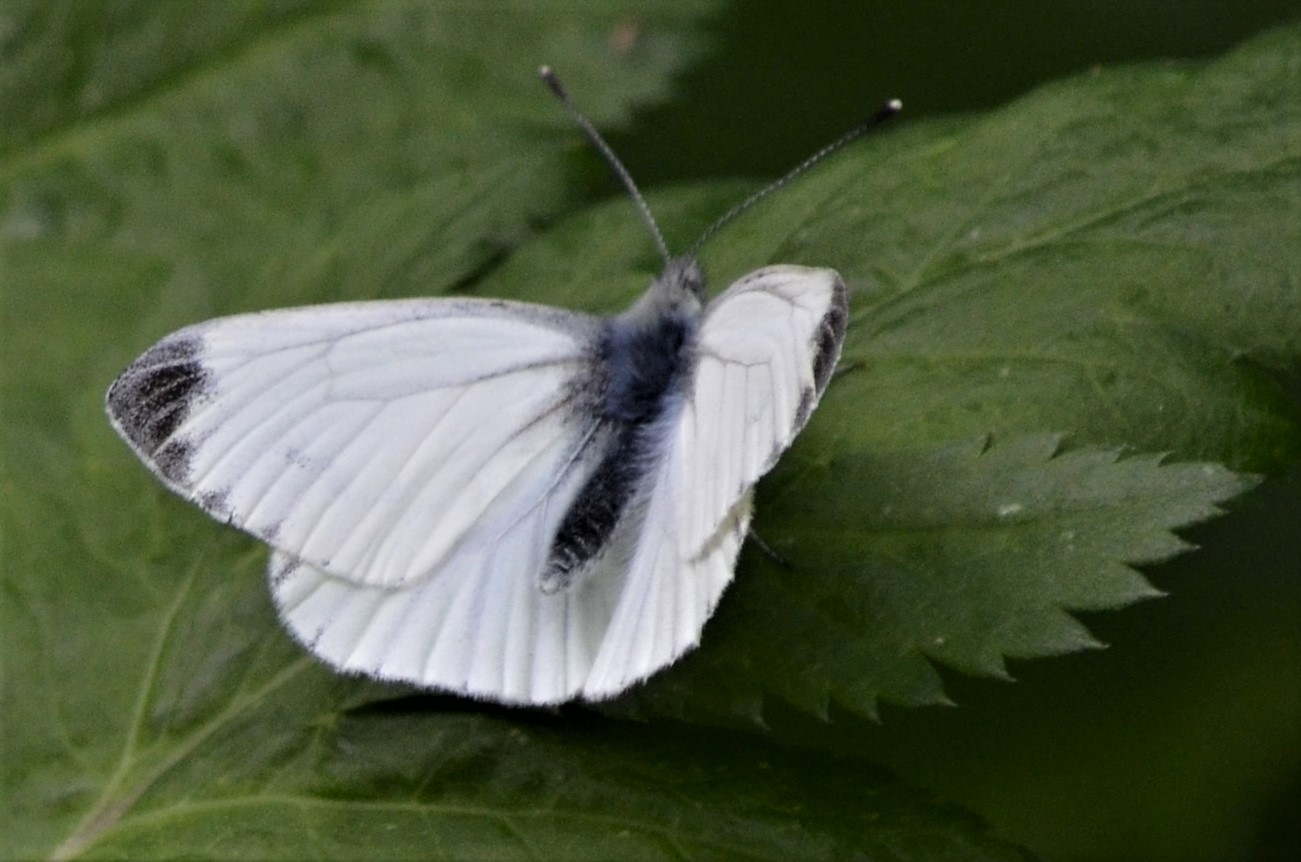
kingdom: Animalia
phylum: Arthropoda
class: Insecta
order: Lepidoptera
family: Pieridae
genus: Pieris
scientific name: Pieris napi
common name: Green-veined white
